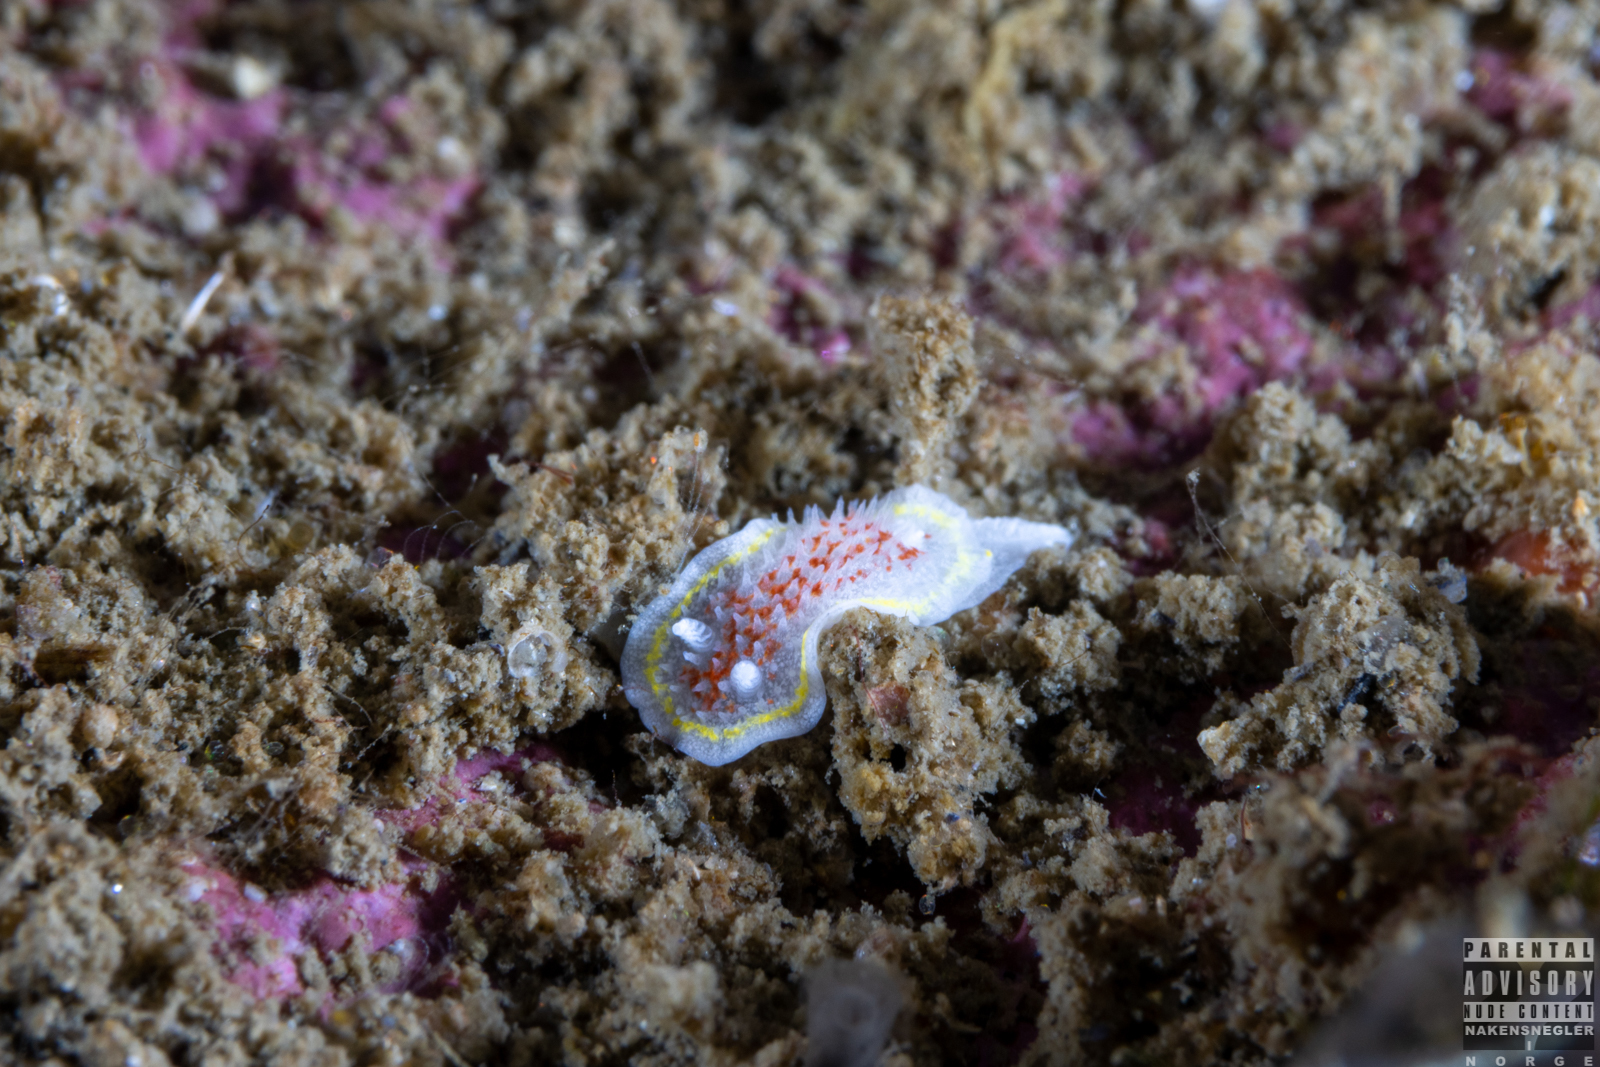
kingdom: Animalia
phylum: Mollusca
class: Gastropoda
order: Nudibranchia
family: Calycidorididae
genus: Diaphorodoris
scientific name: Diaphorodoris luteocincta
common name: Fried egg nudibranch
